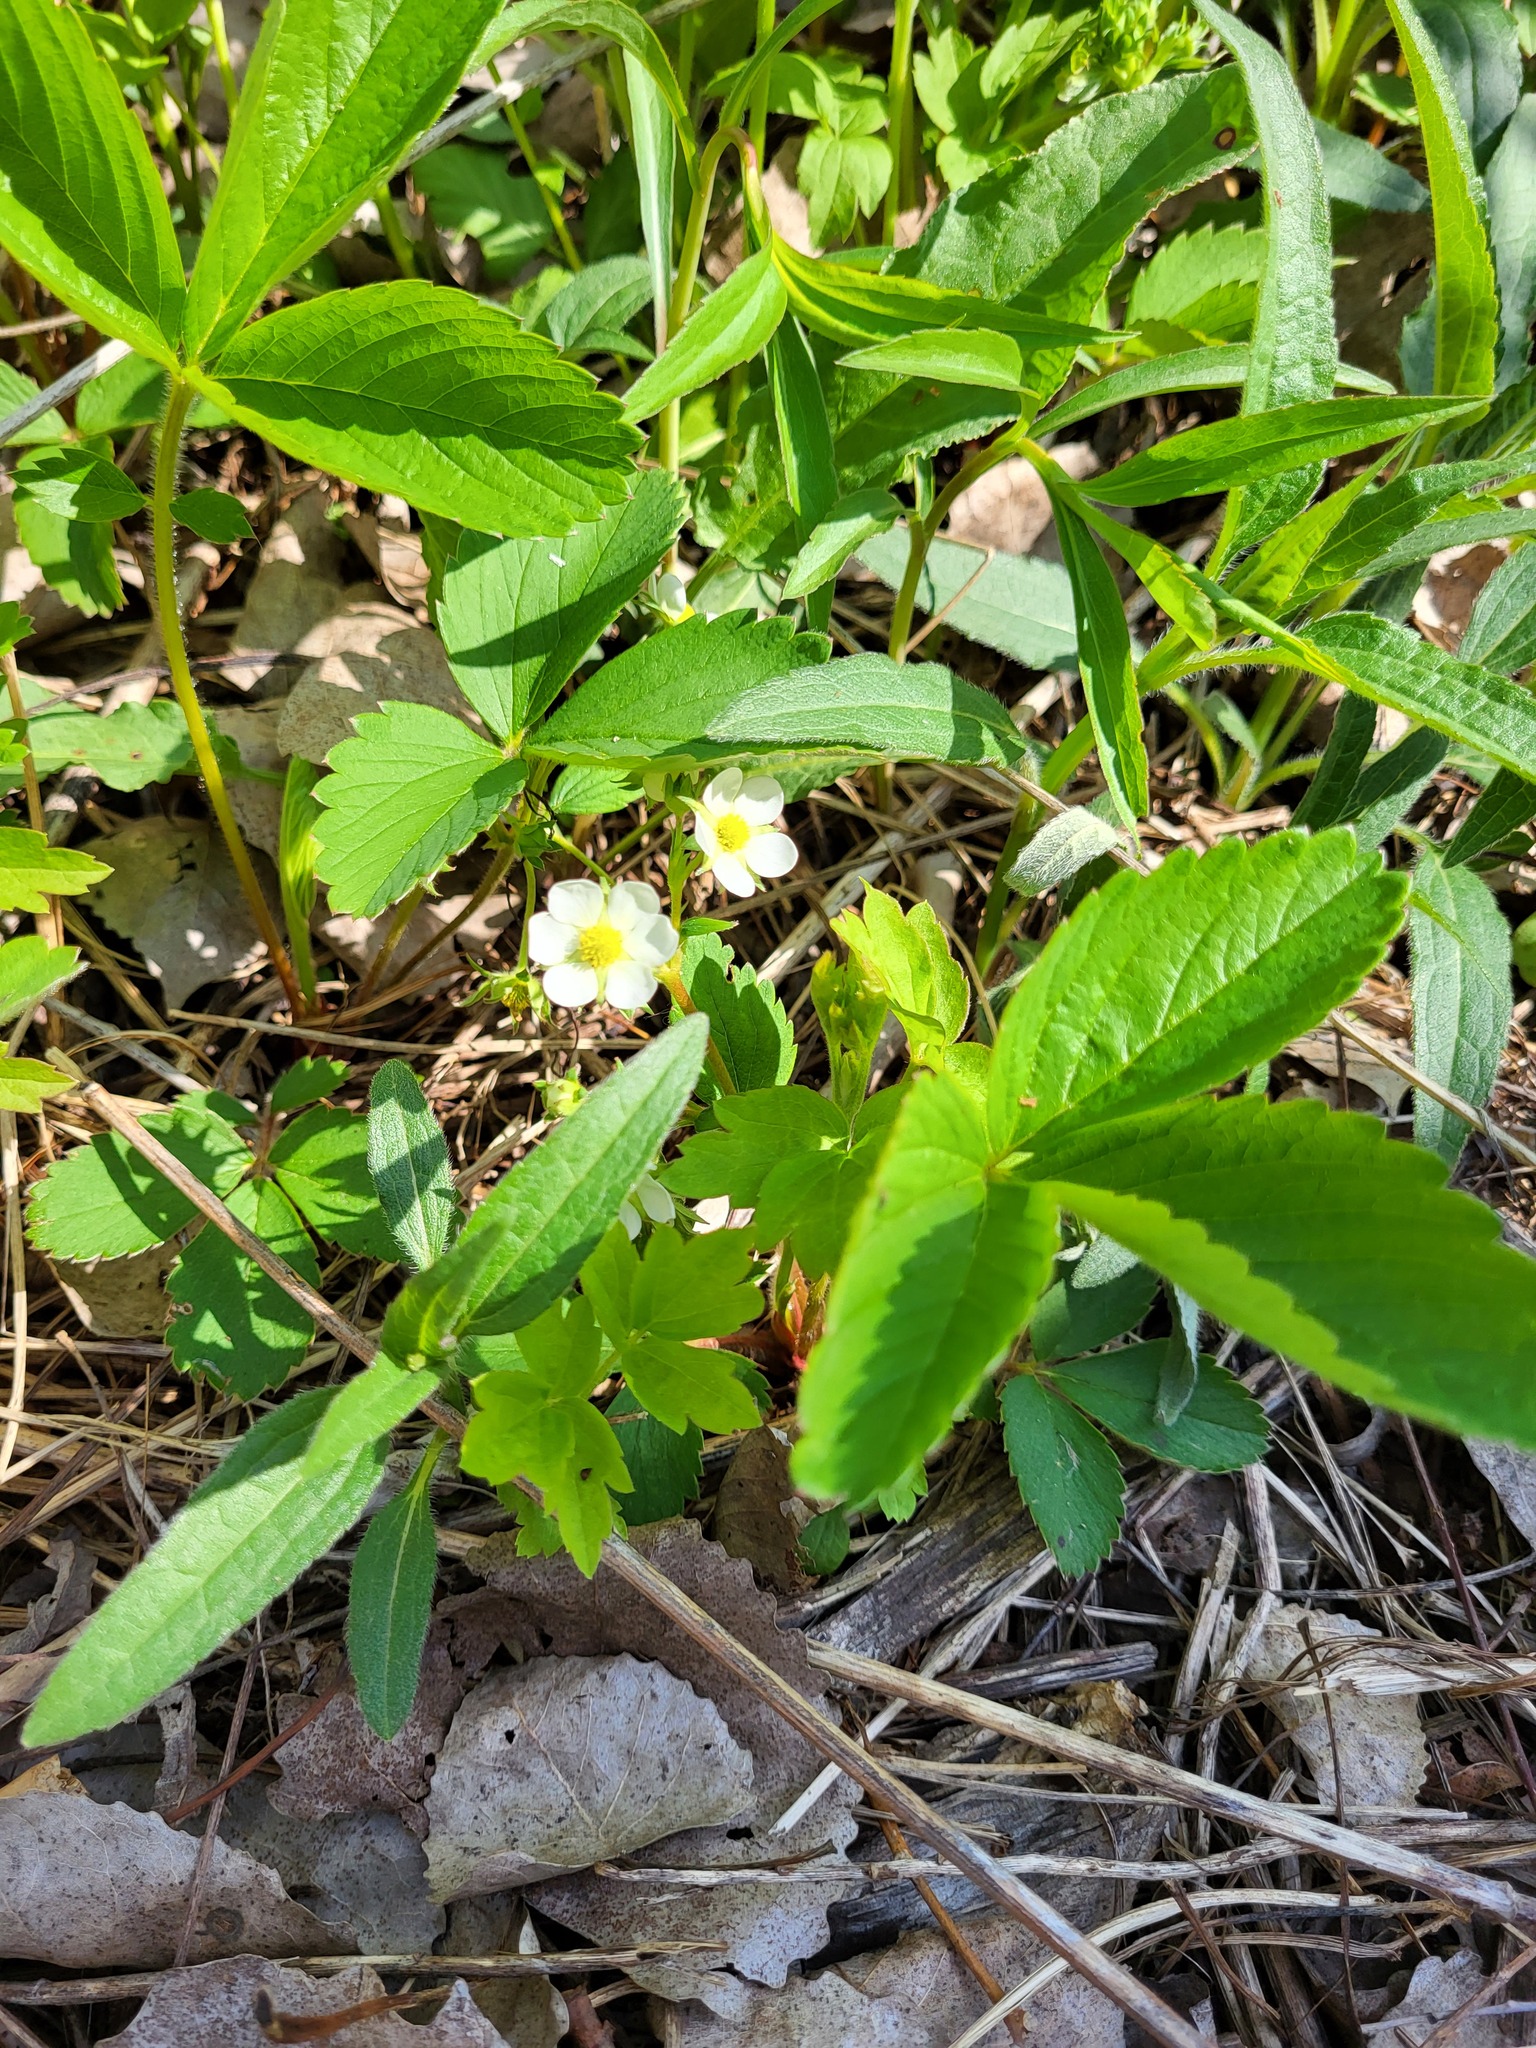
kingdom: Plantae
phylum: Tracheophyta
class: Magnoliopsida
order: Rosales
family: Rosaceae
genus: Fragaria
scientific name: Fragaria virginiana
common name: Thickleaved wild strawberry
